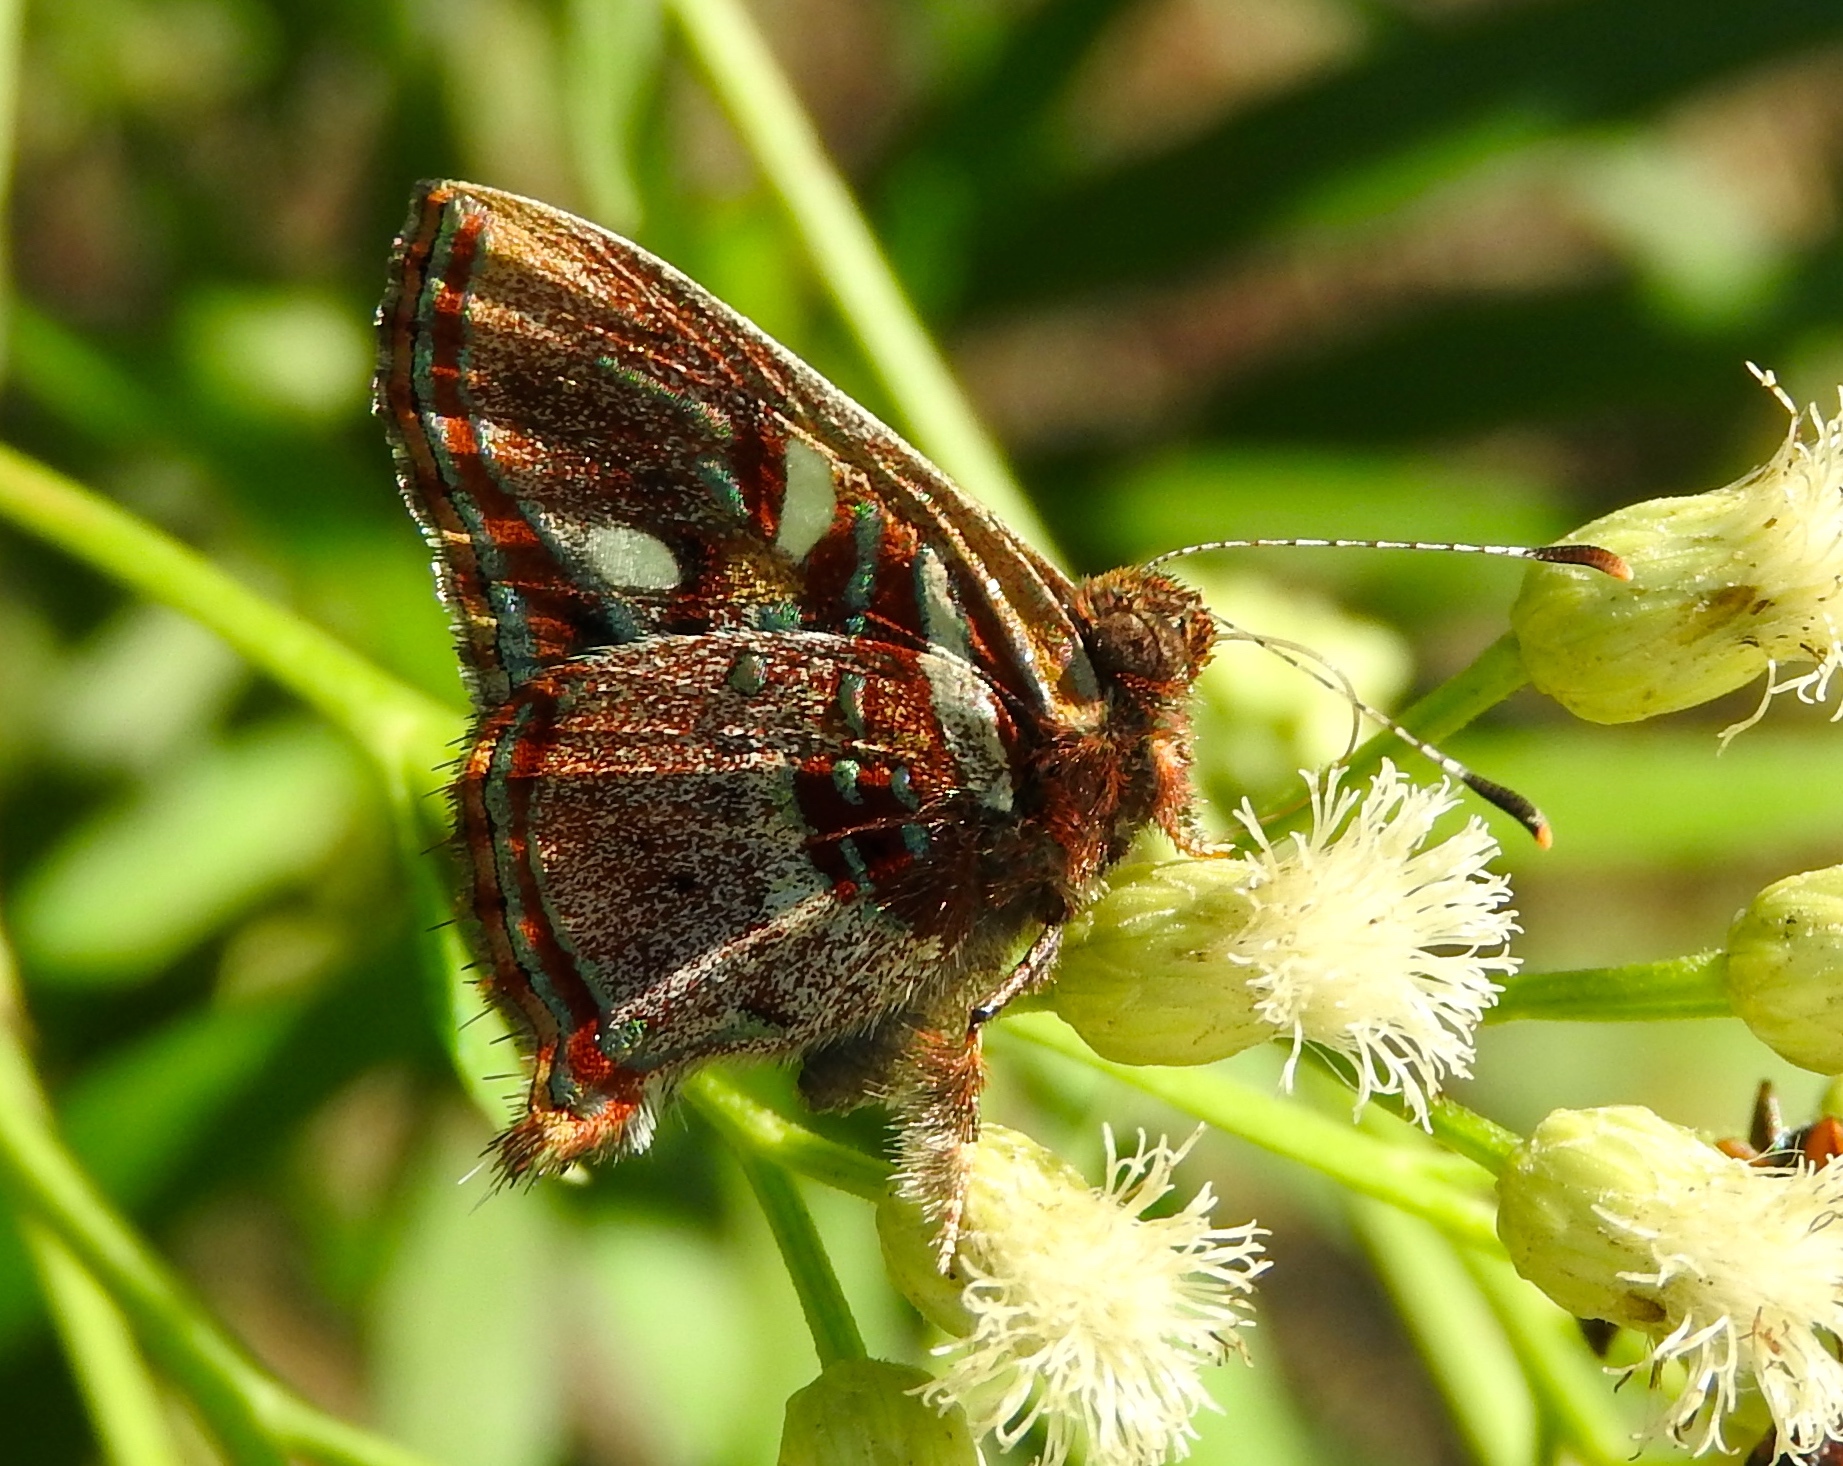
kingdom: Animalia
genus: Anteros
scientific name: Anteros carausius
